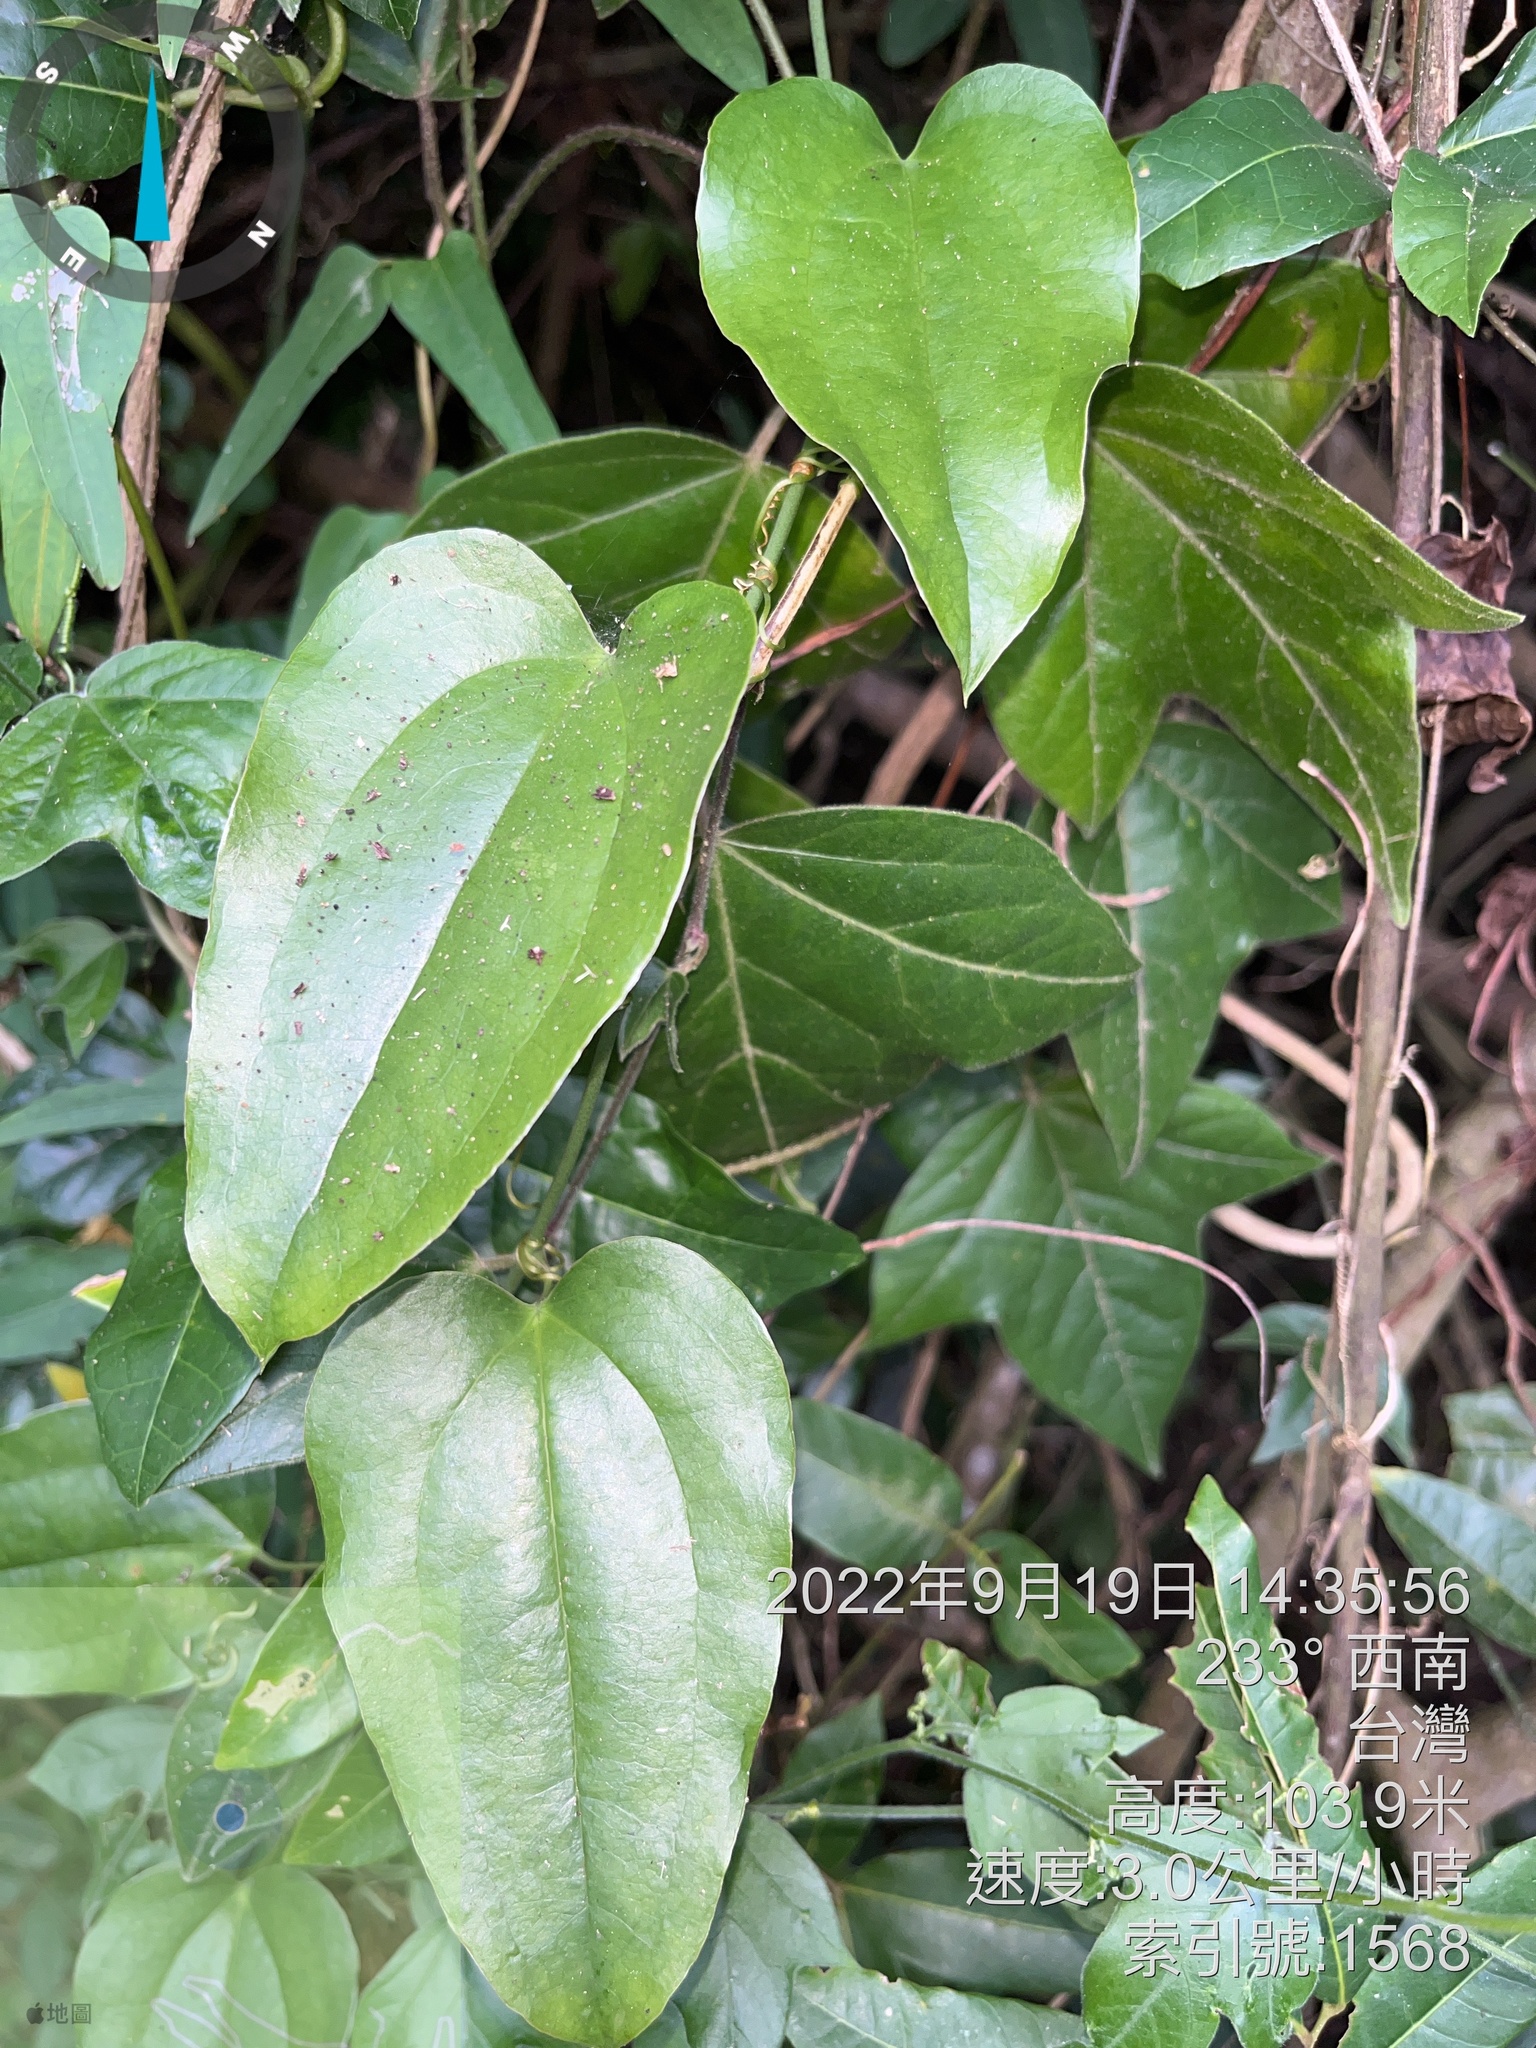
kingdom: Plantae
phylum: Tracheophyta
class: Liliopsida
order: Liliales
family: Smilacaceae
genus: Smilax
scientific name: Smilax china
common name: Chinaroot
